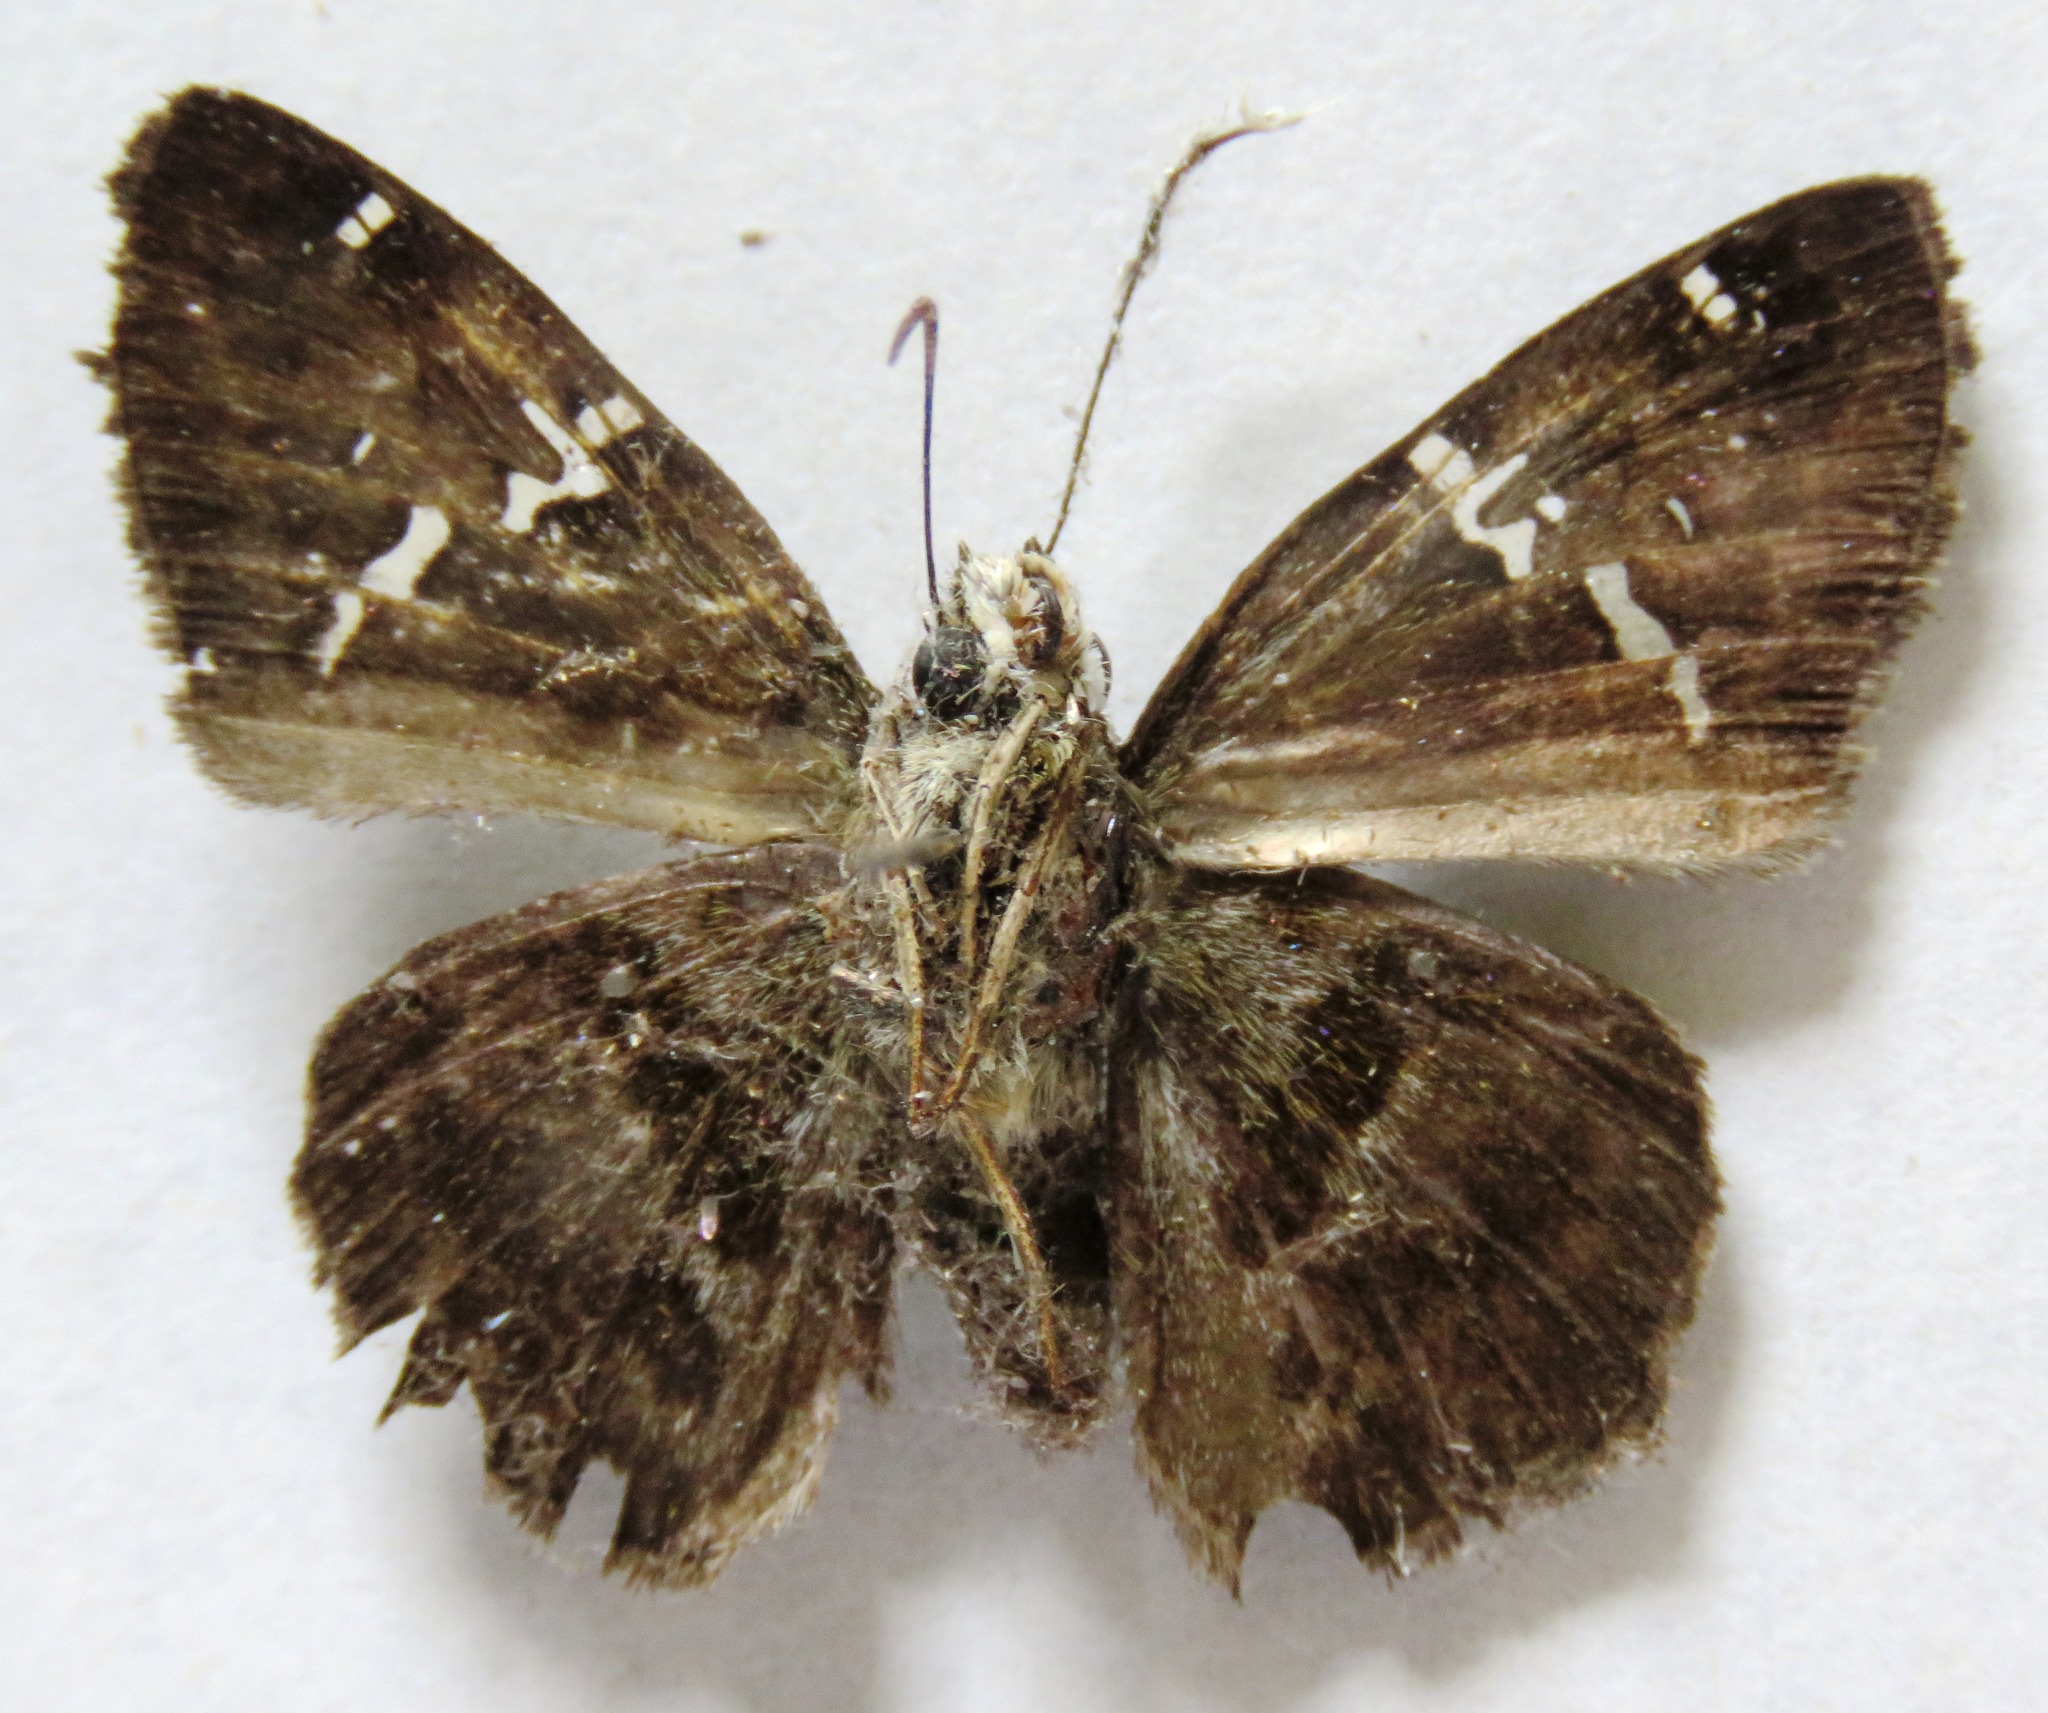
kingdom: Animalia
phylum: Arthropoda
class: Insecta
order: Lepidoptera
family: Hesperiidae
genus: Autochton
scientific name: Autochton potrillo
